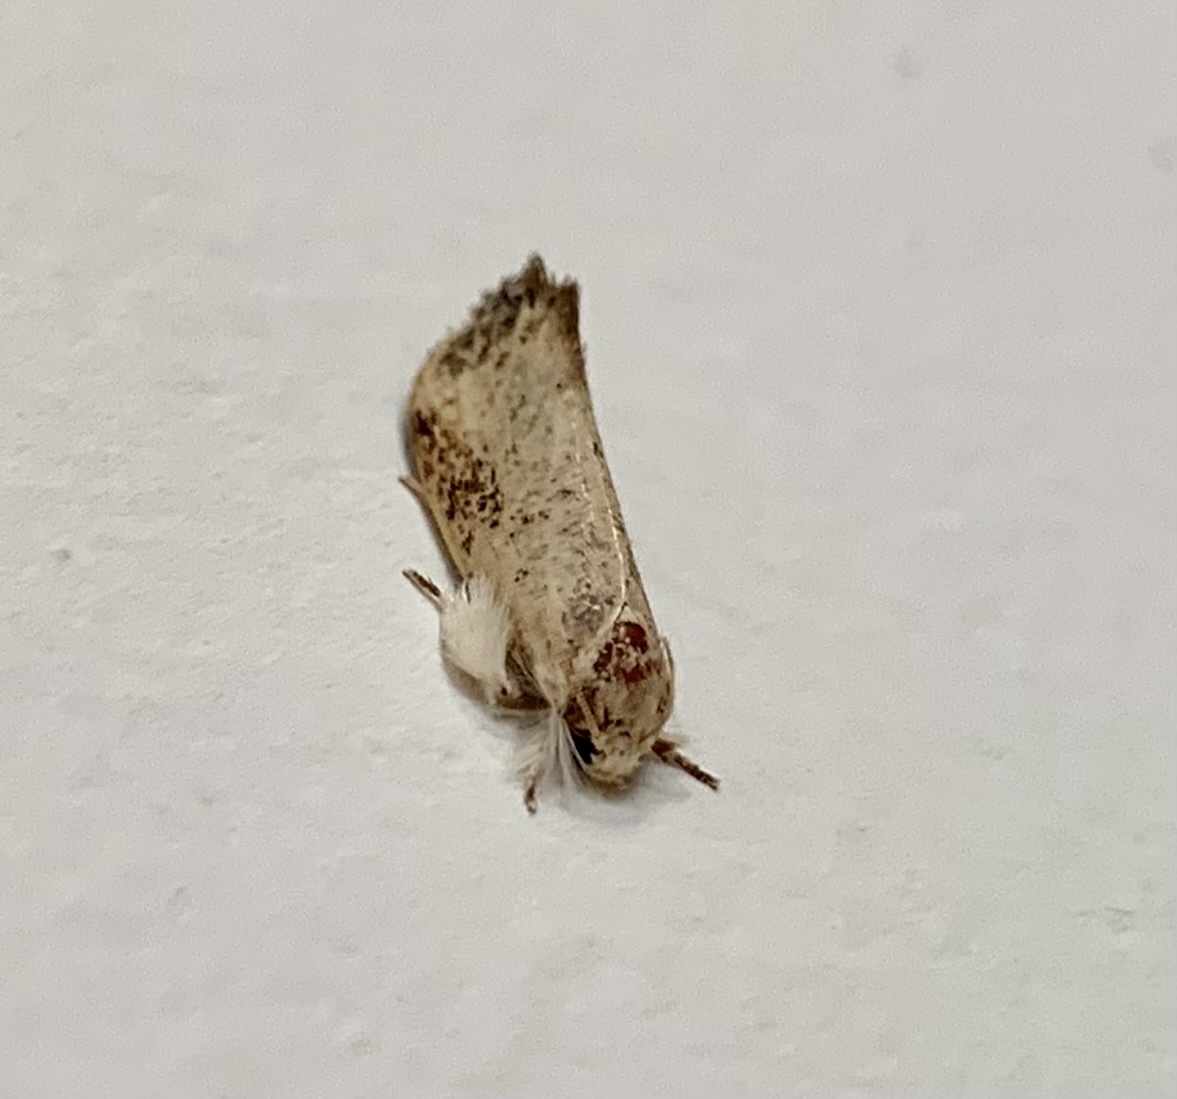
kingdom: Animalia
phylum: Arthropoda
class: Insecta
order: Lepidoptera
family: Tineidae
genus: Acrolophus
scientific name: Acrolophus mycetophagus
